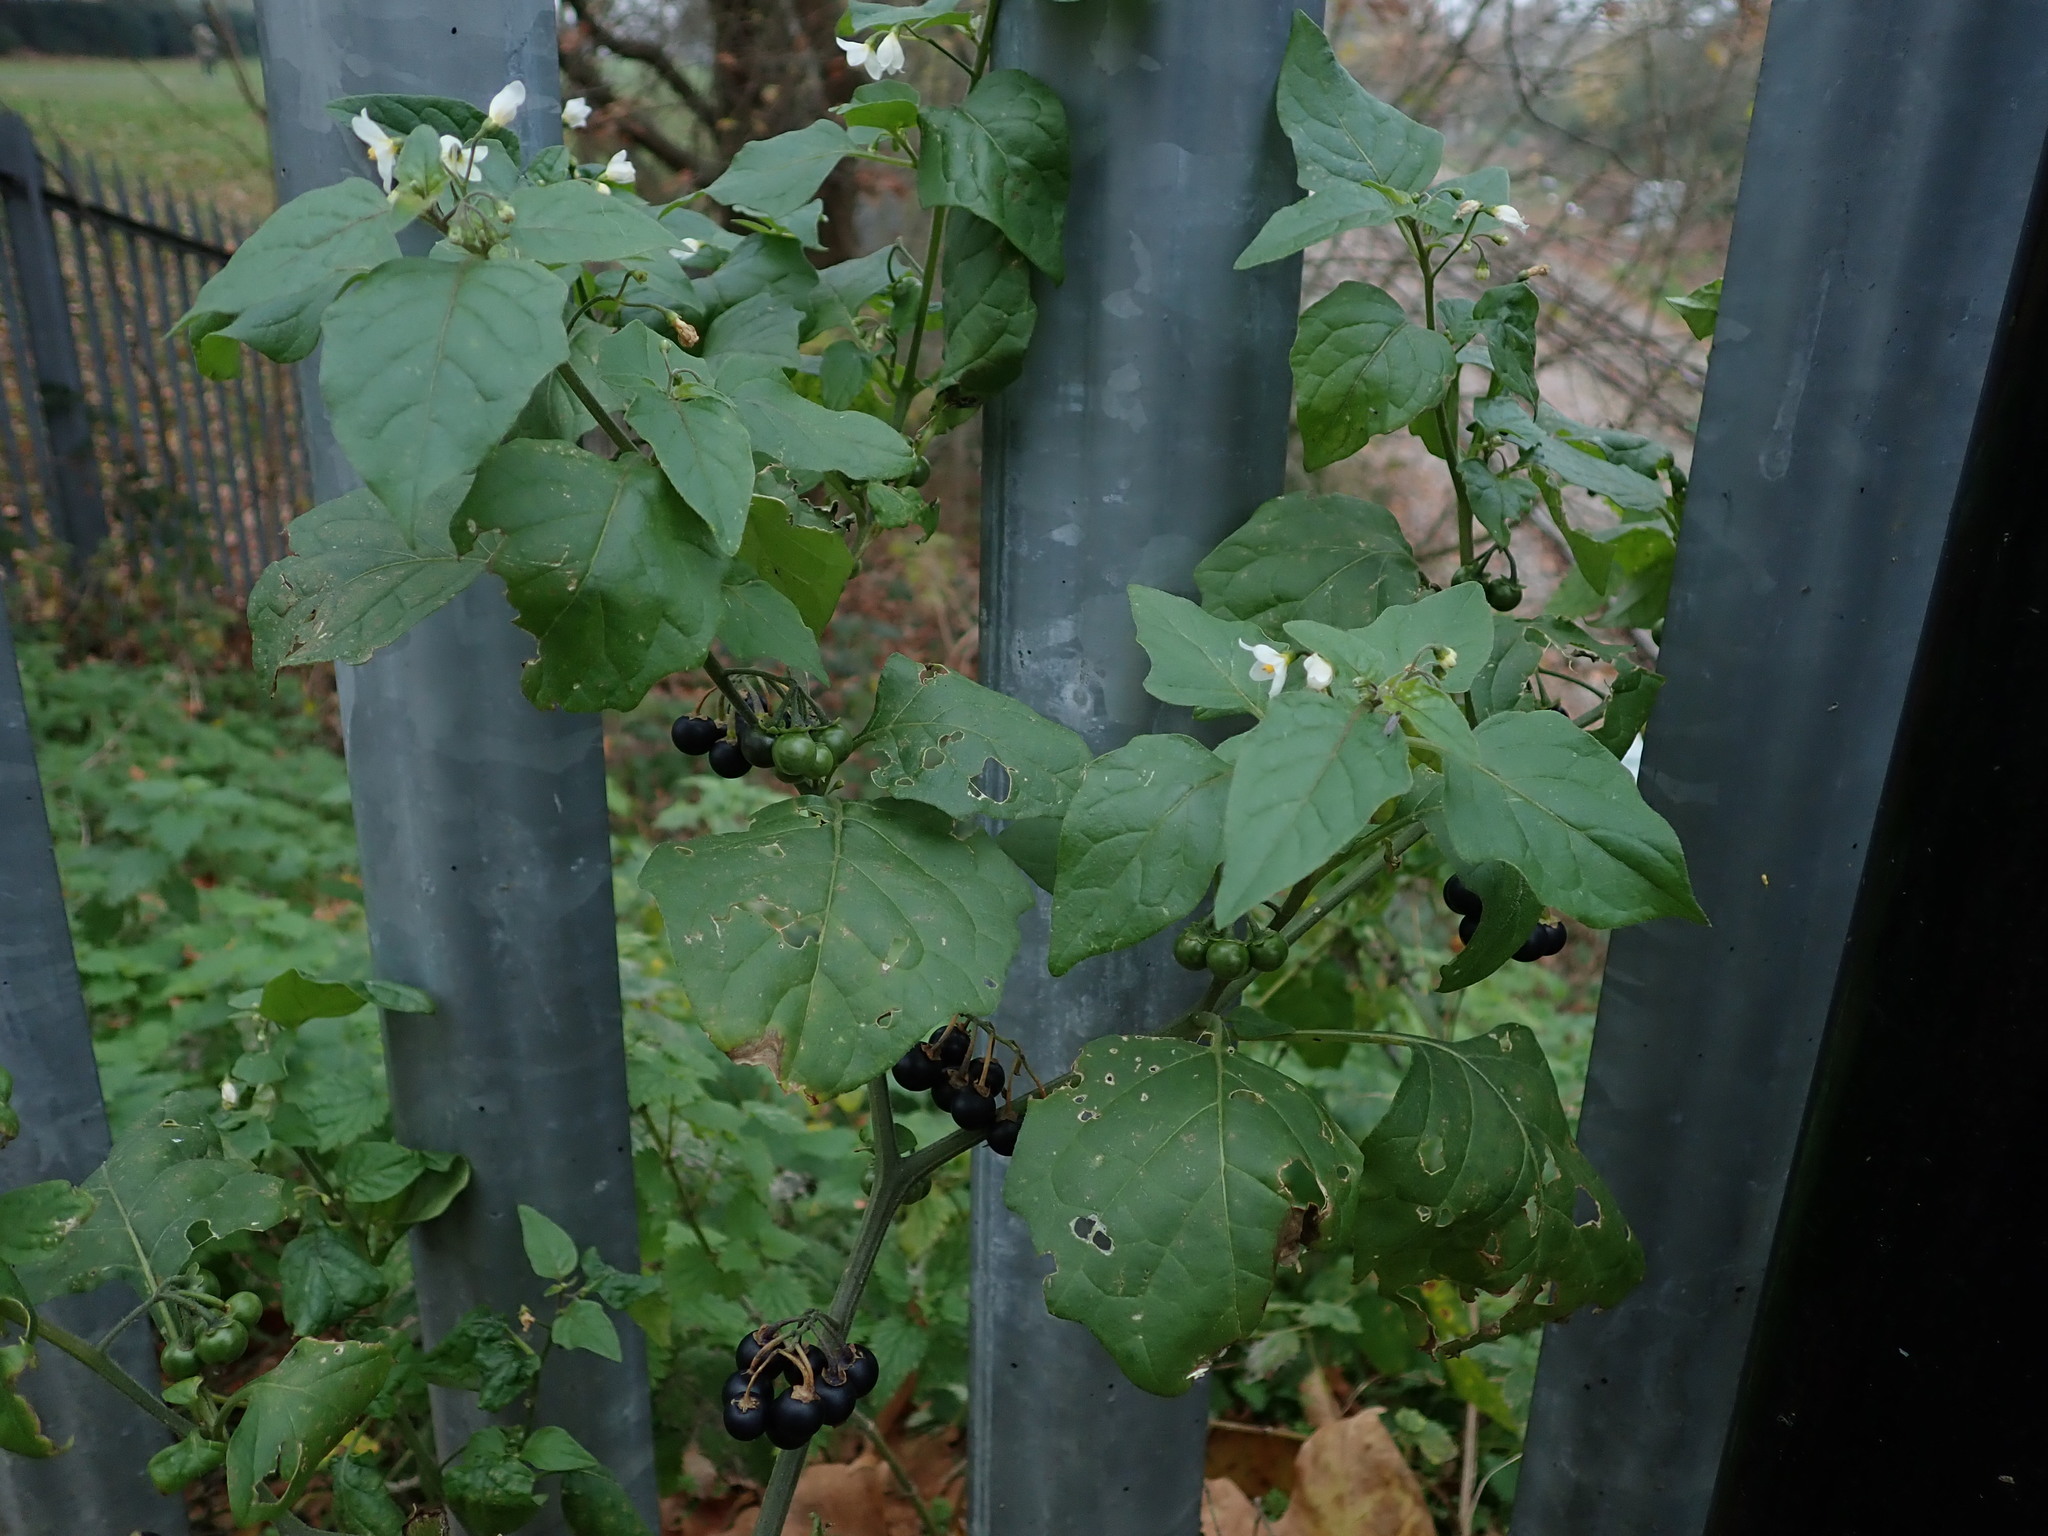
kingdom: Plantae
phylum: Tracheophyta
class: Magnoliopsida
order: Solanales
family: Solanaceae
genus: Solanum
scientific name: Solanum nigrum
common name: Black nightshade
